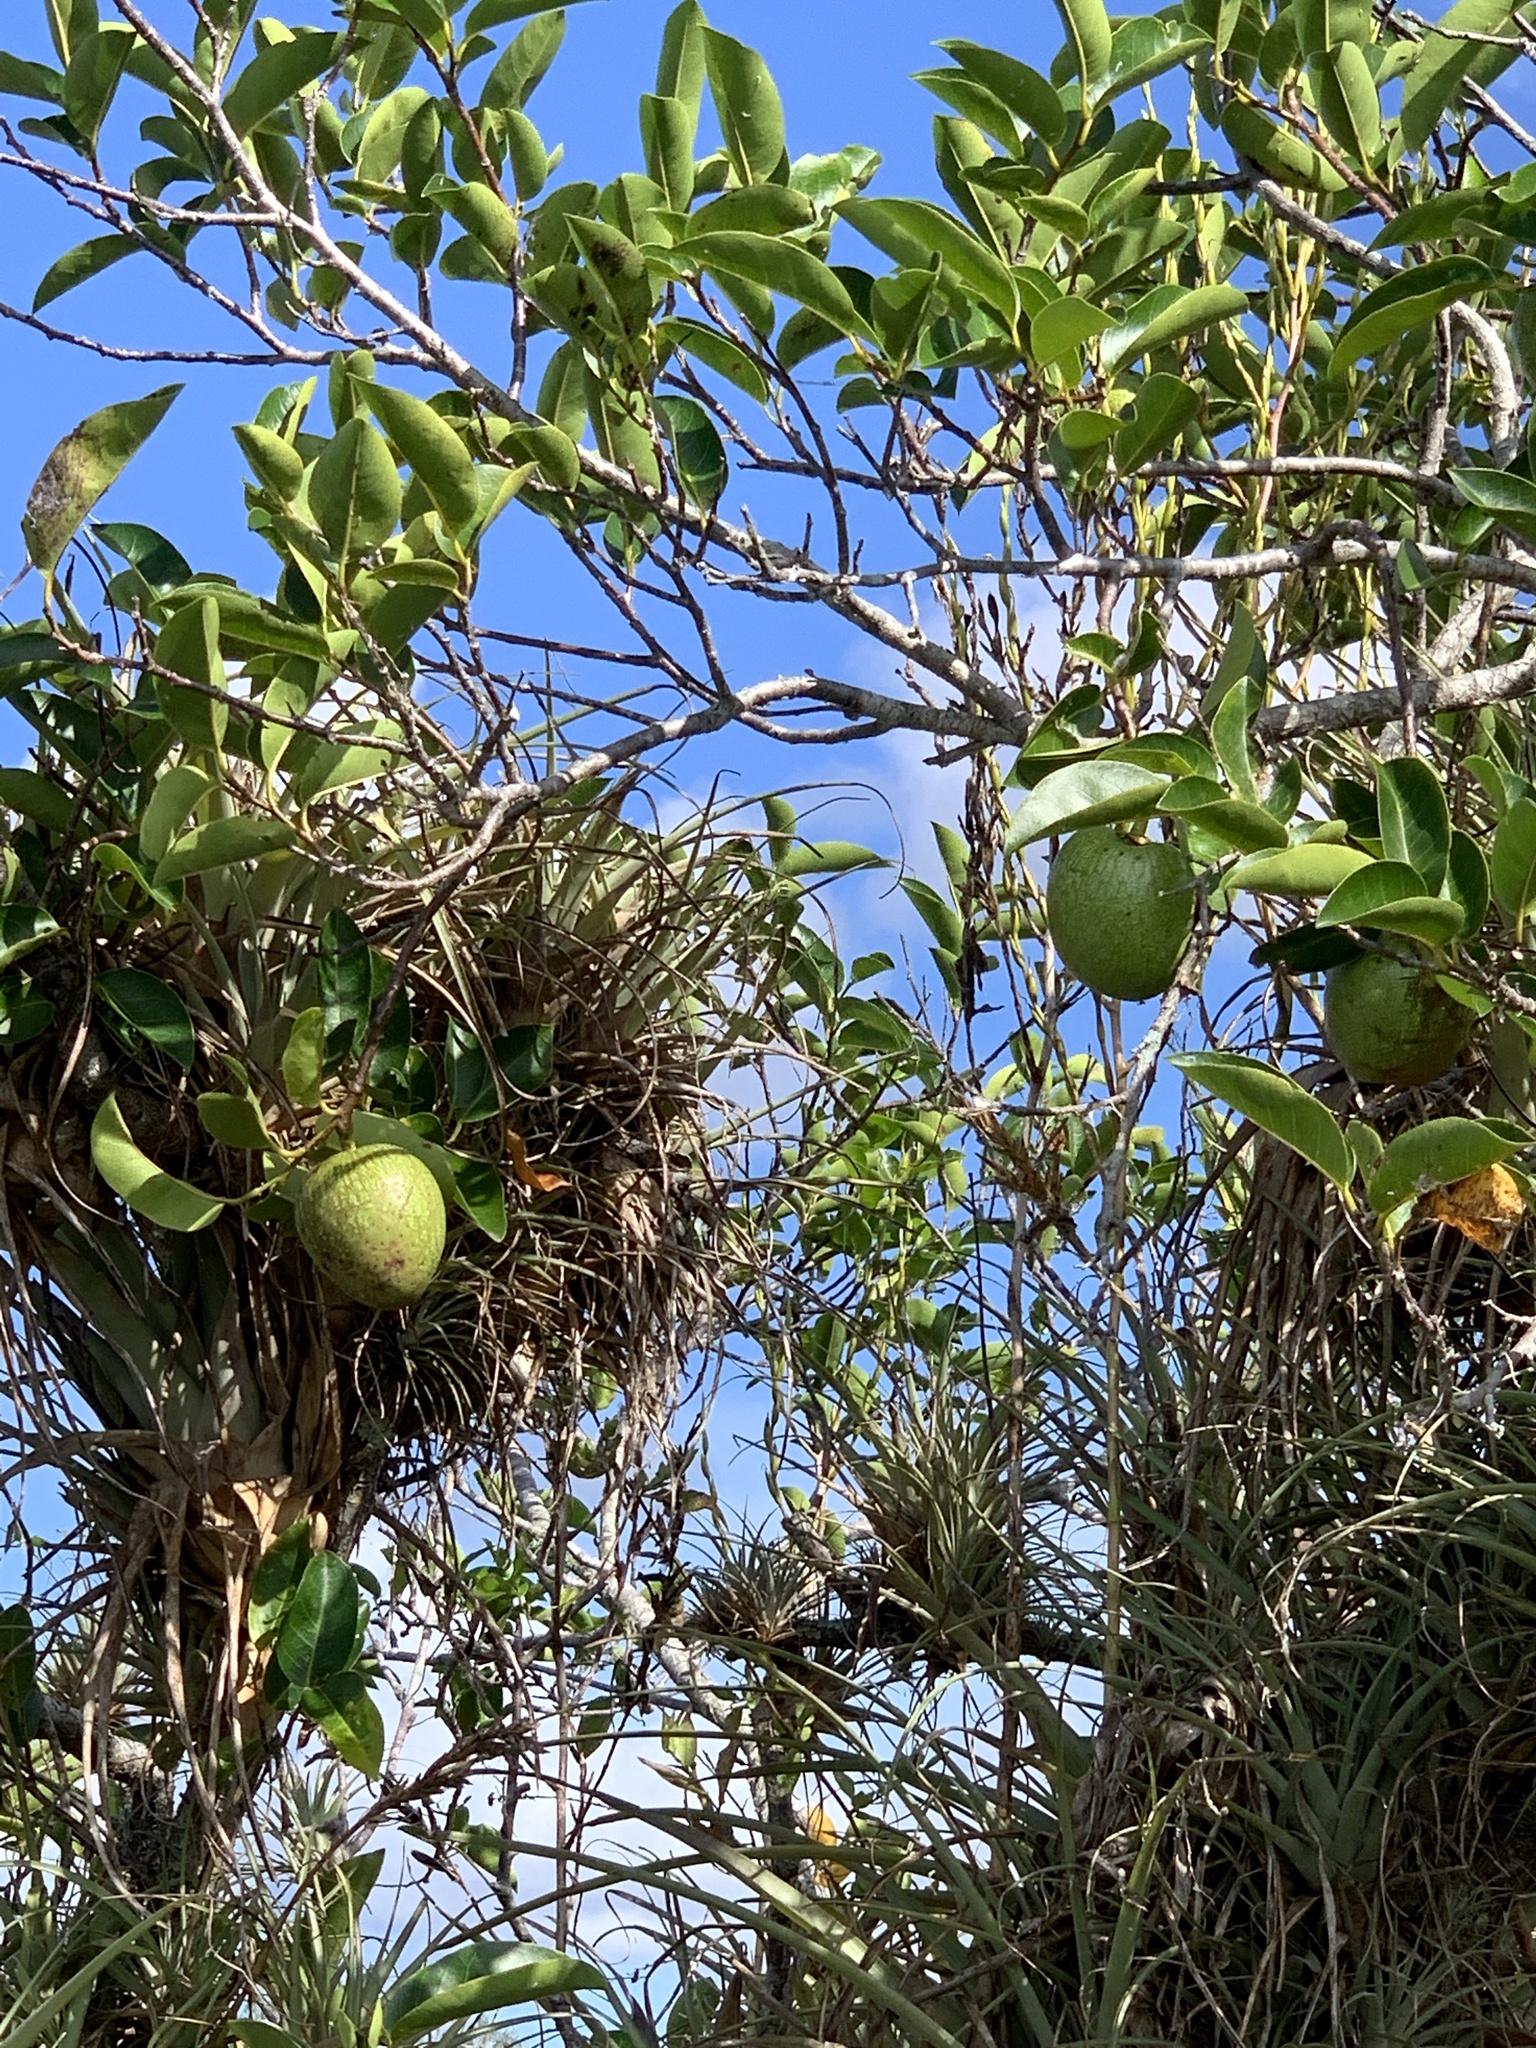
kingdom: Plantae
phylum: Tracheophyta
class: Magnoliopsida
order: Magnoliales
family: Annonaceae
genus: Annona
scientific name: Annona glabra
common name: Monkey apple
